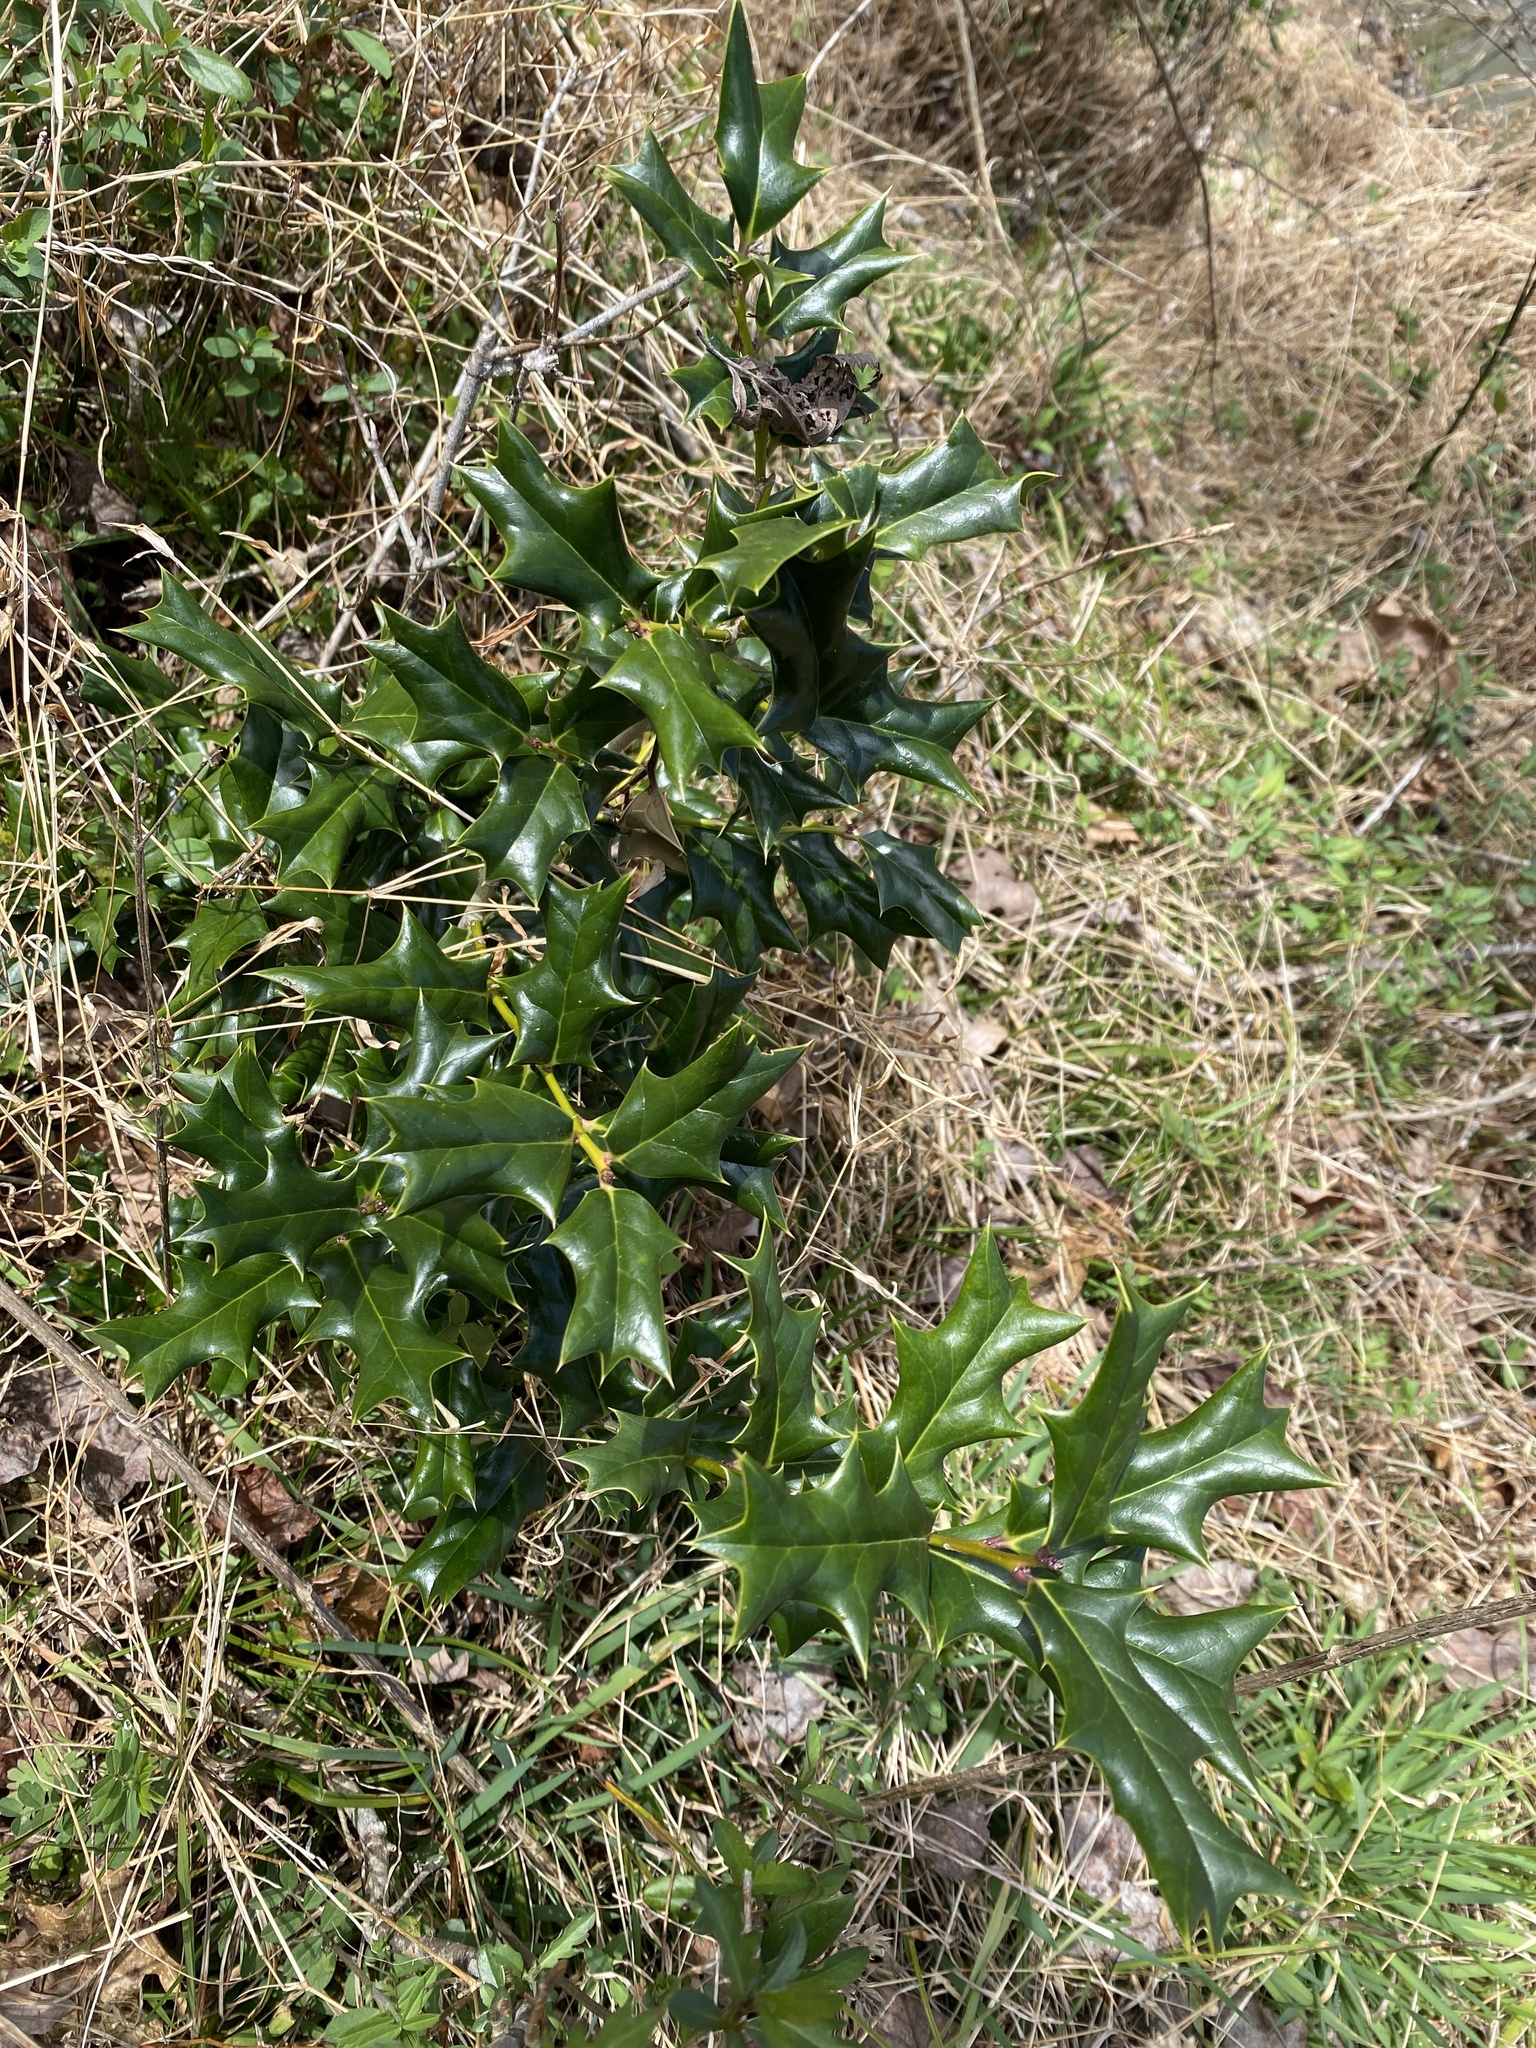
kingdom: Plantae
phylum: Tracheophyta
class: Magnoliopsida
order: Aquifoliales
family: Aquifoliaceae
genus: Ilex
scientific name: Ilex cornuta
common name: Chinese holly
